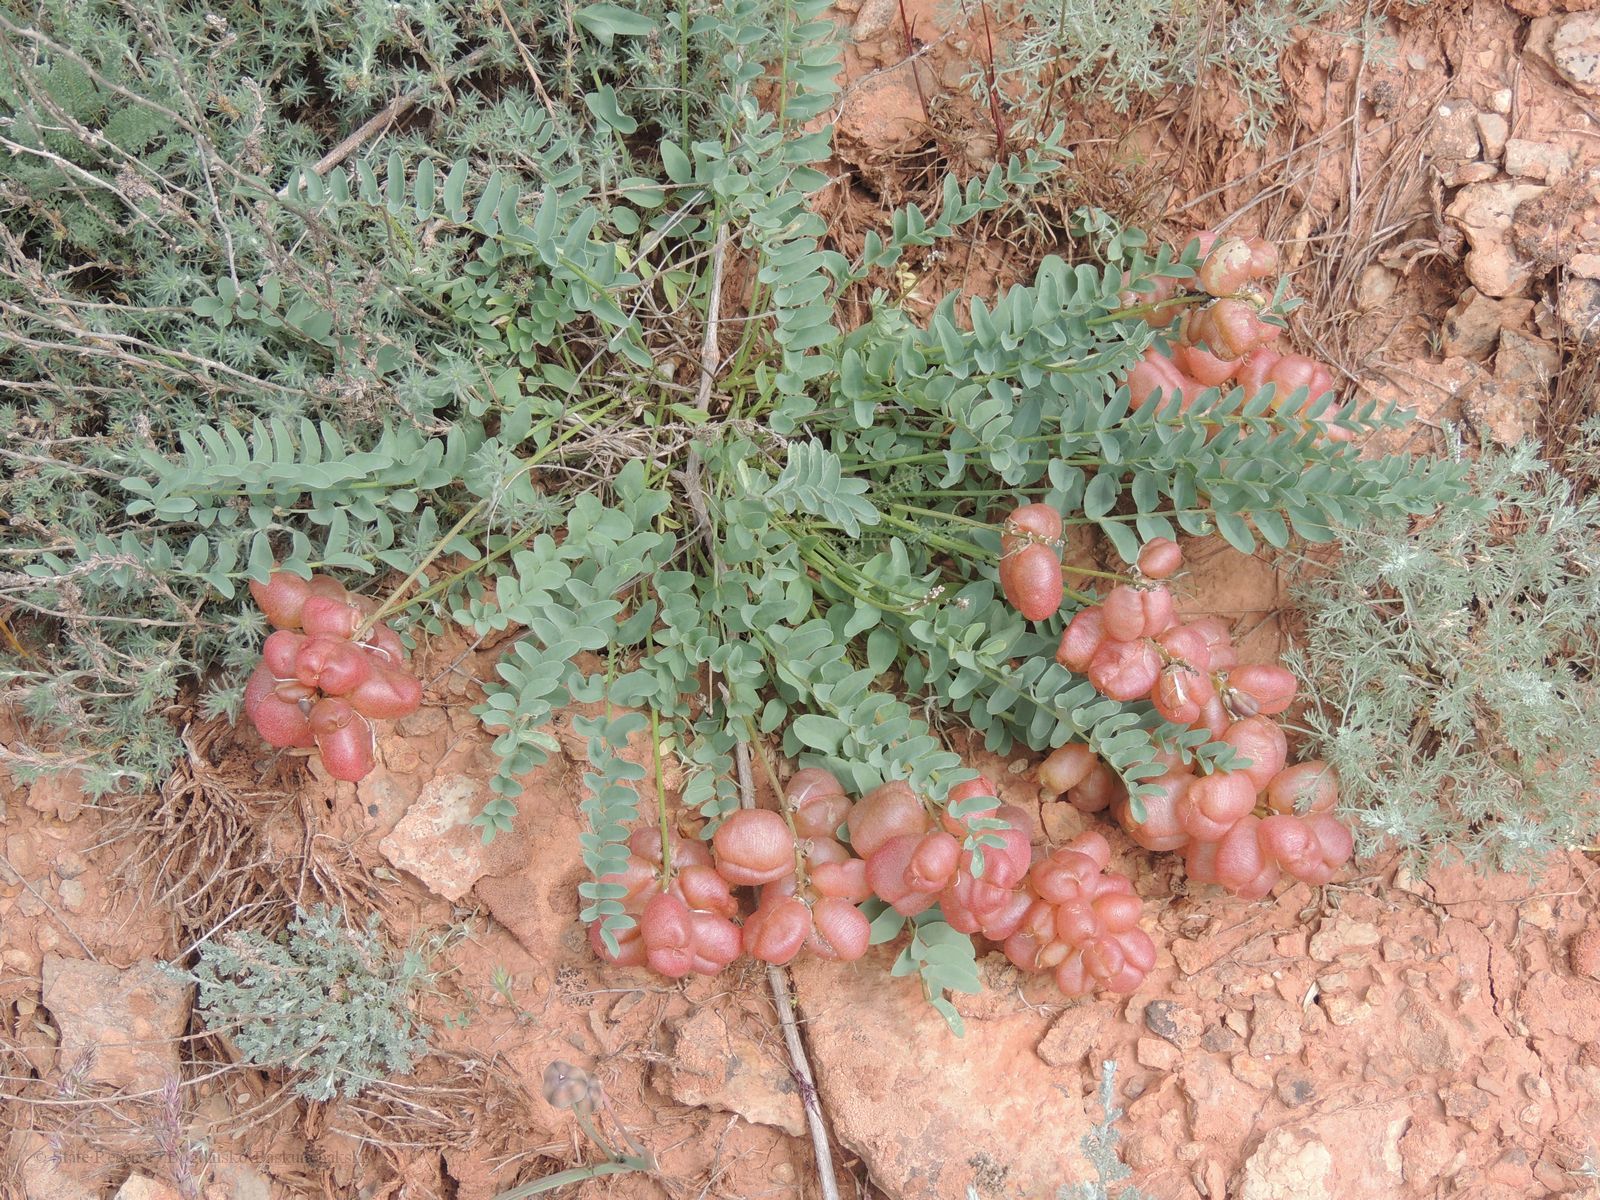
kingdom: Plantae
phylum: Tracheophyta
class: Magnoliopsida
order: Fabales
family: Fabaceae
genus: Astragalus
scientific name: Astragalus physodes
